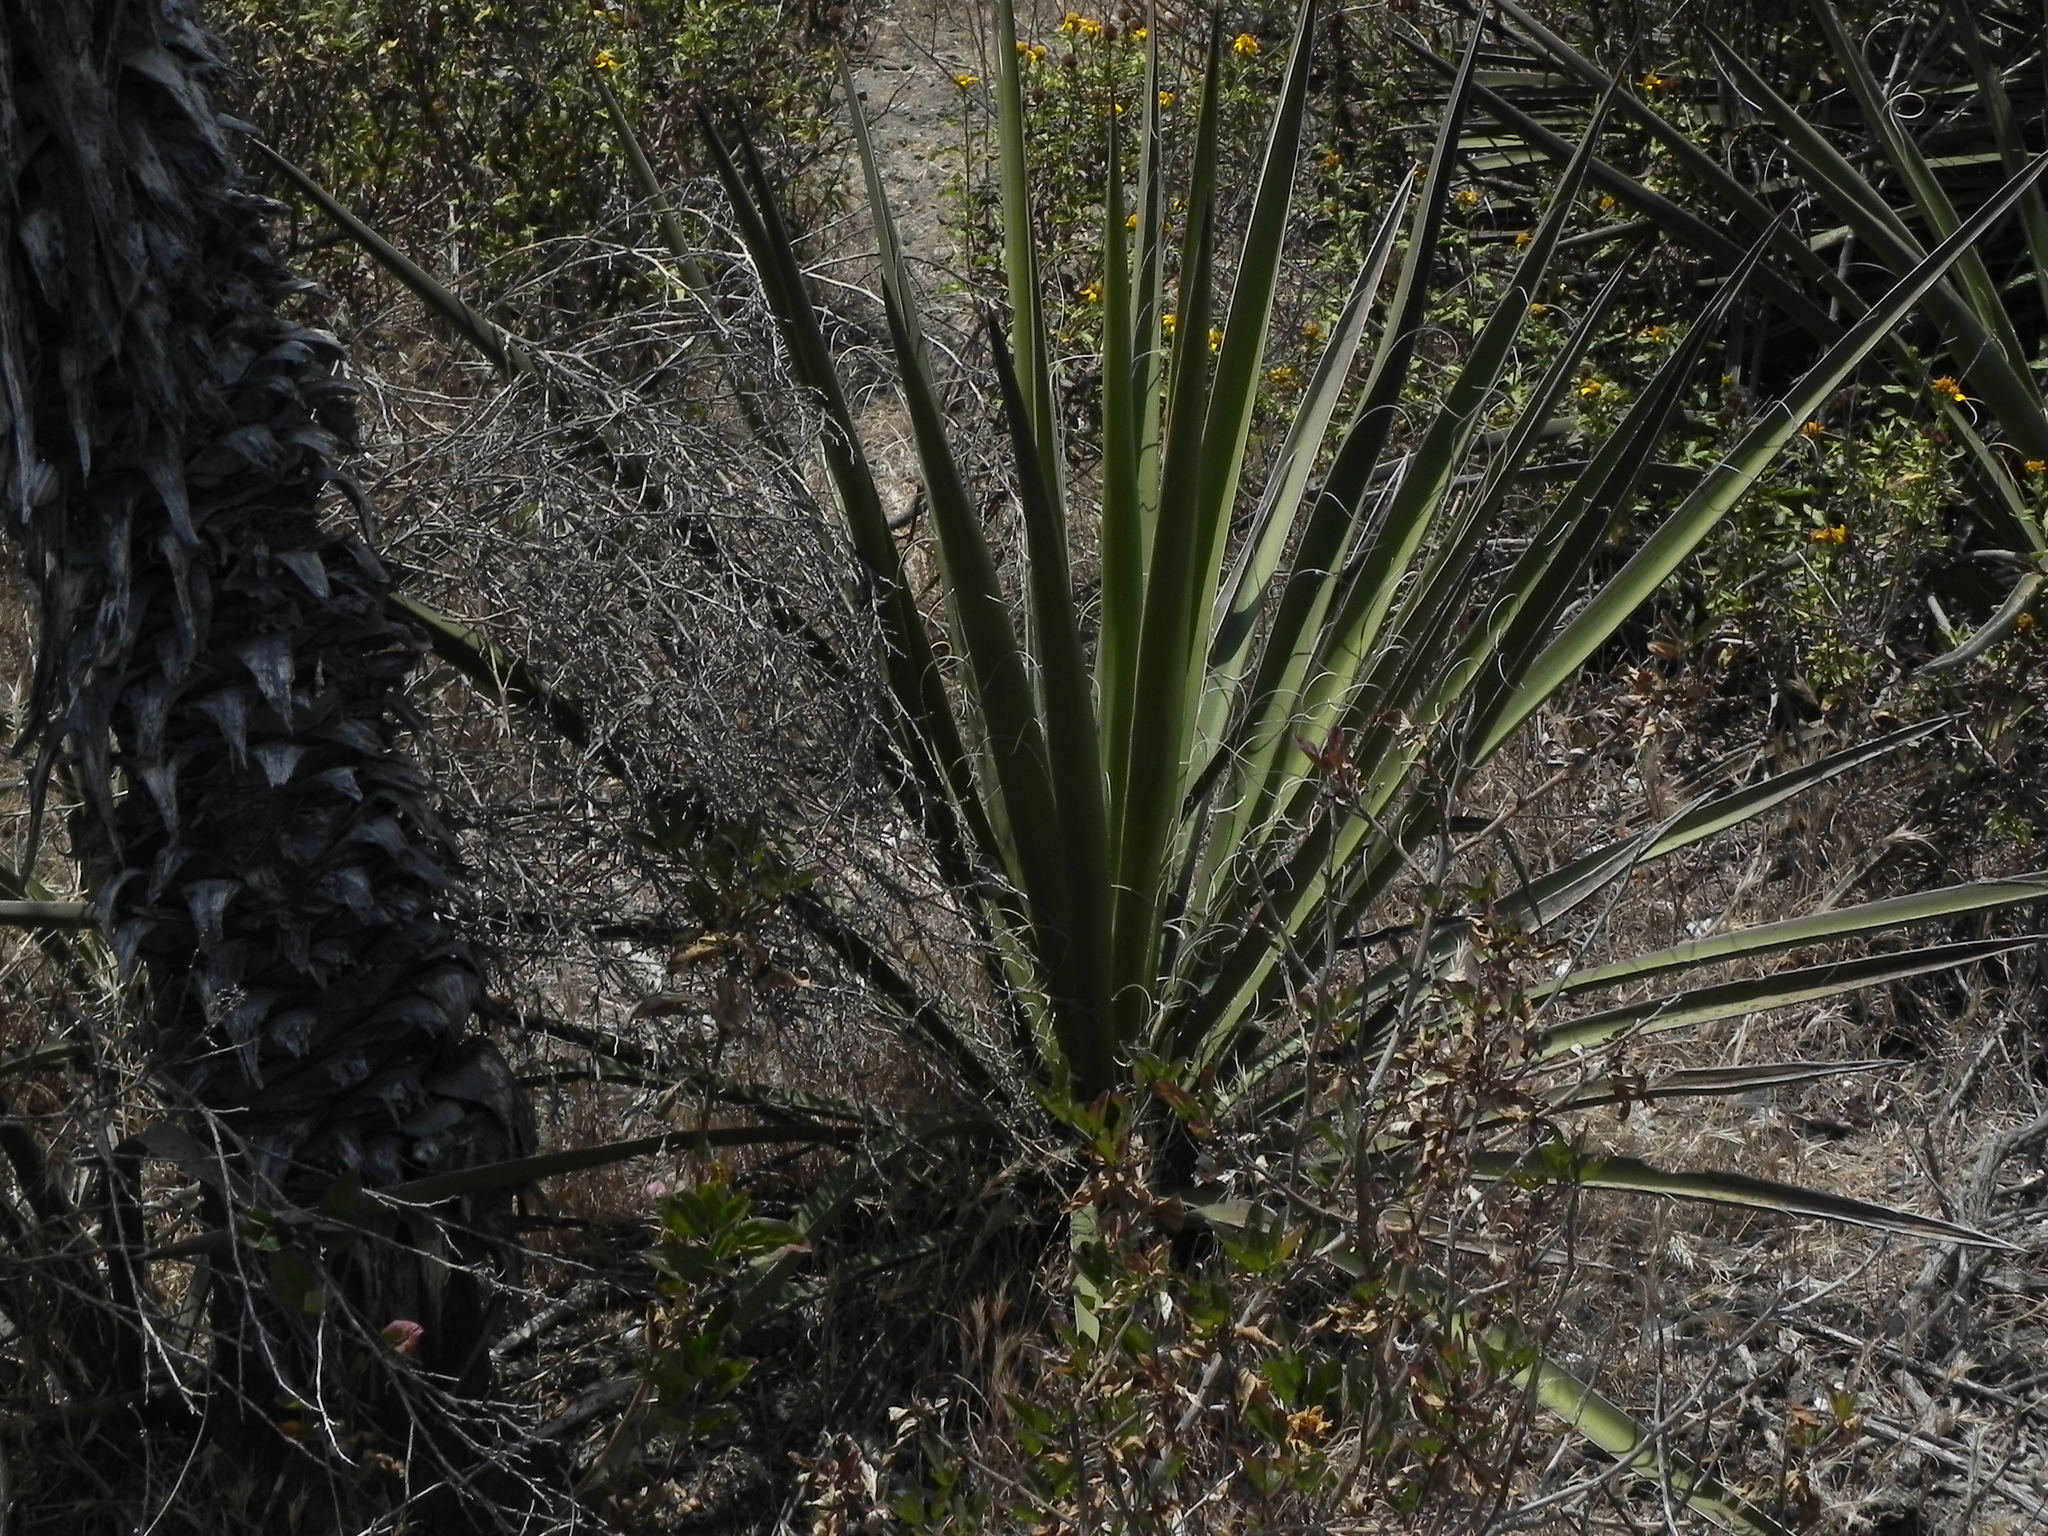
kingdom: Plantae
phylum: Tracheophyta
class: Liliopsida
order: Asparagales
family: Asparagaceae
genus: Yucca
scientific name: Yucca schidigera
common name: Mojave yucca
